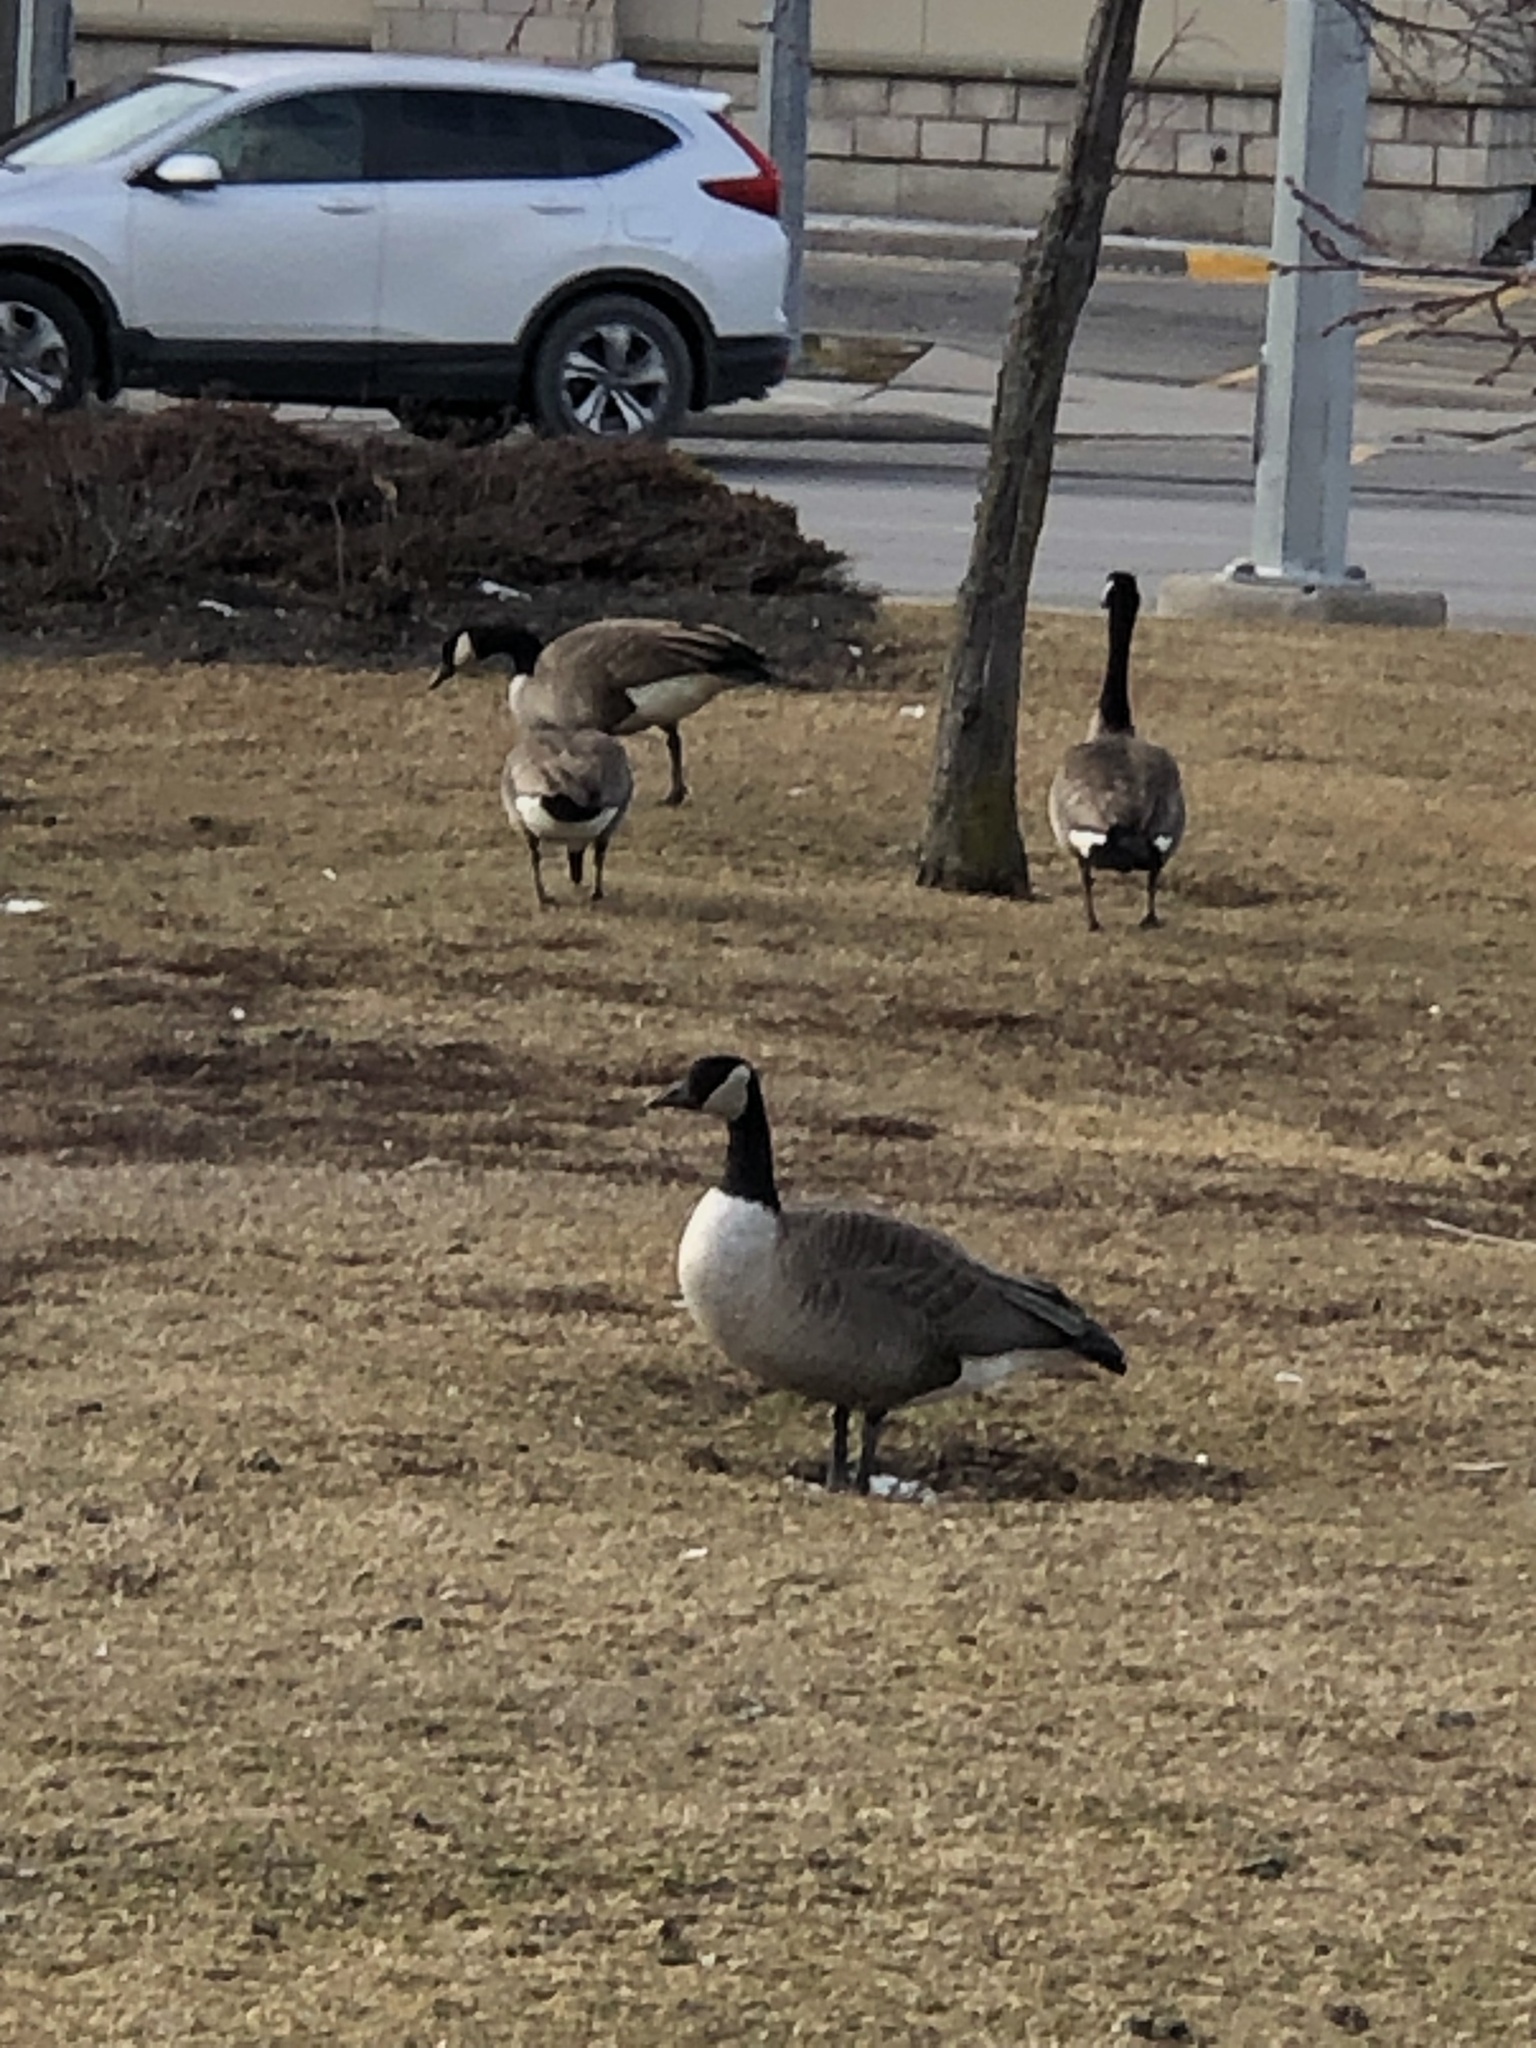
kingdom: Animalia
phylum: Chordata
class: Aves
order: Anseriformes
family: Anatidae
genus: Branta
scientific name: Branta canadensis
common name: Canada goose
